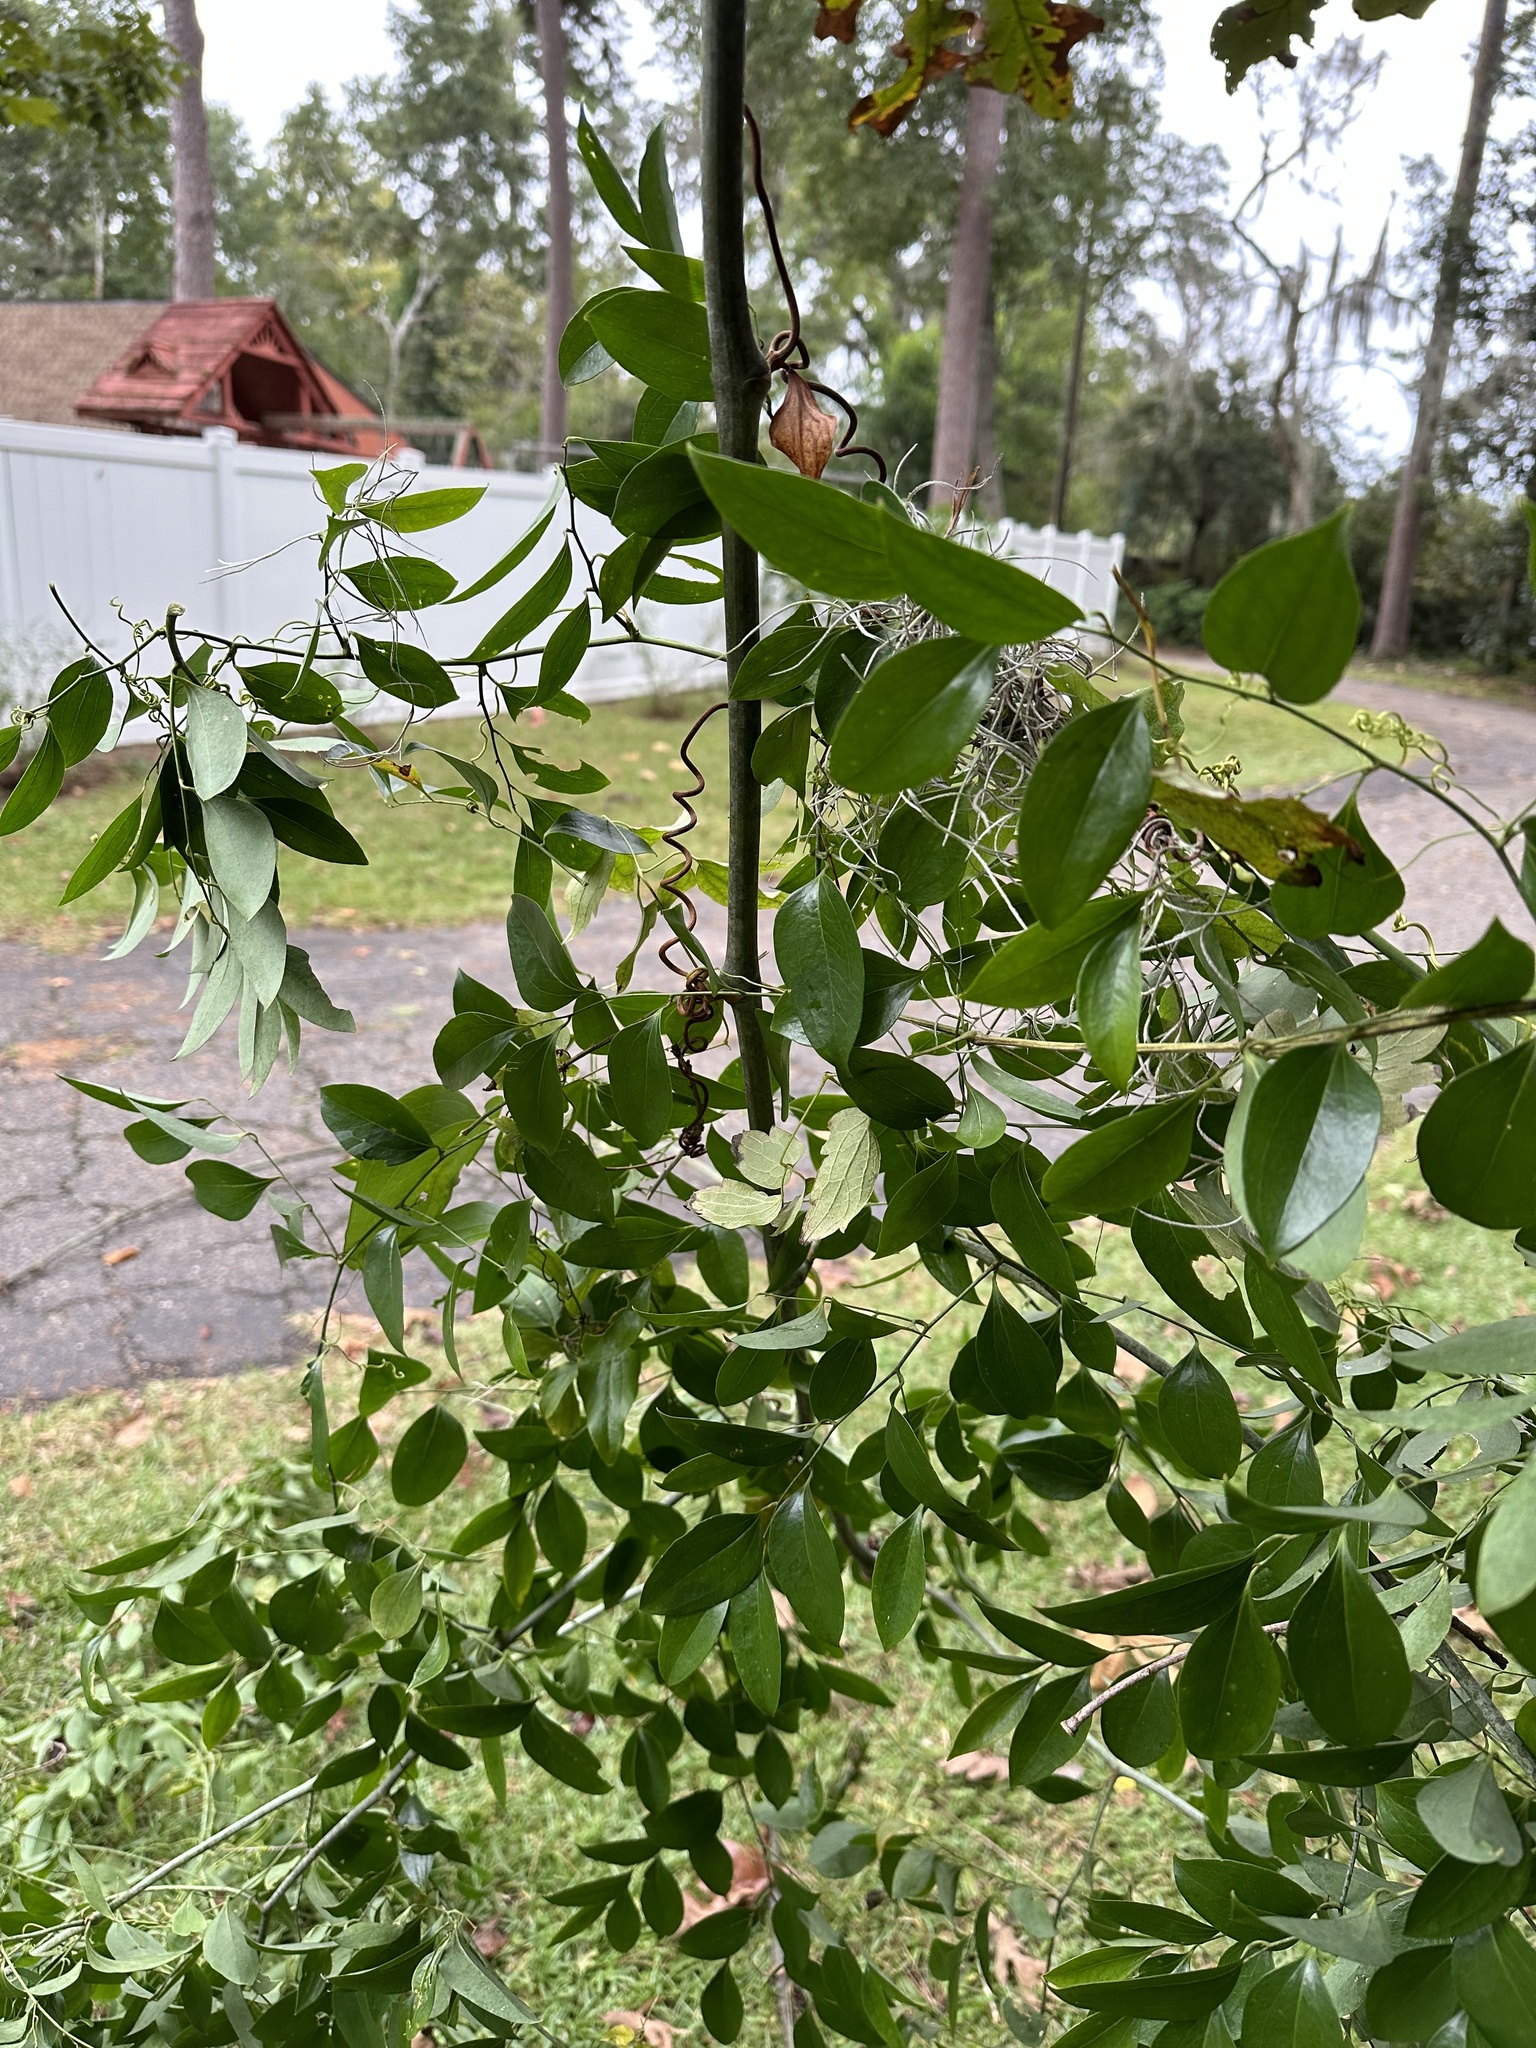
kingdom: Plantae
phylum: Tracheophyta
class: Liliopsida
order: Liliales
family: Smilacaceae
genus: Smilax
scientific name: Smilax maritima
